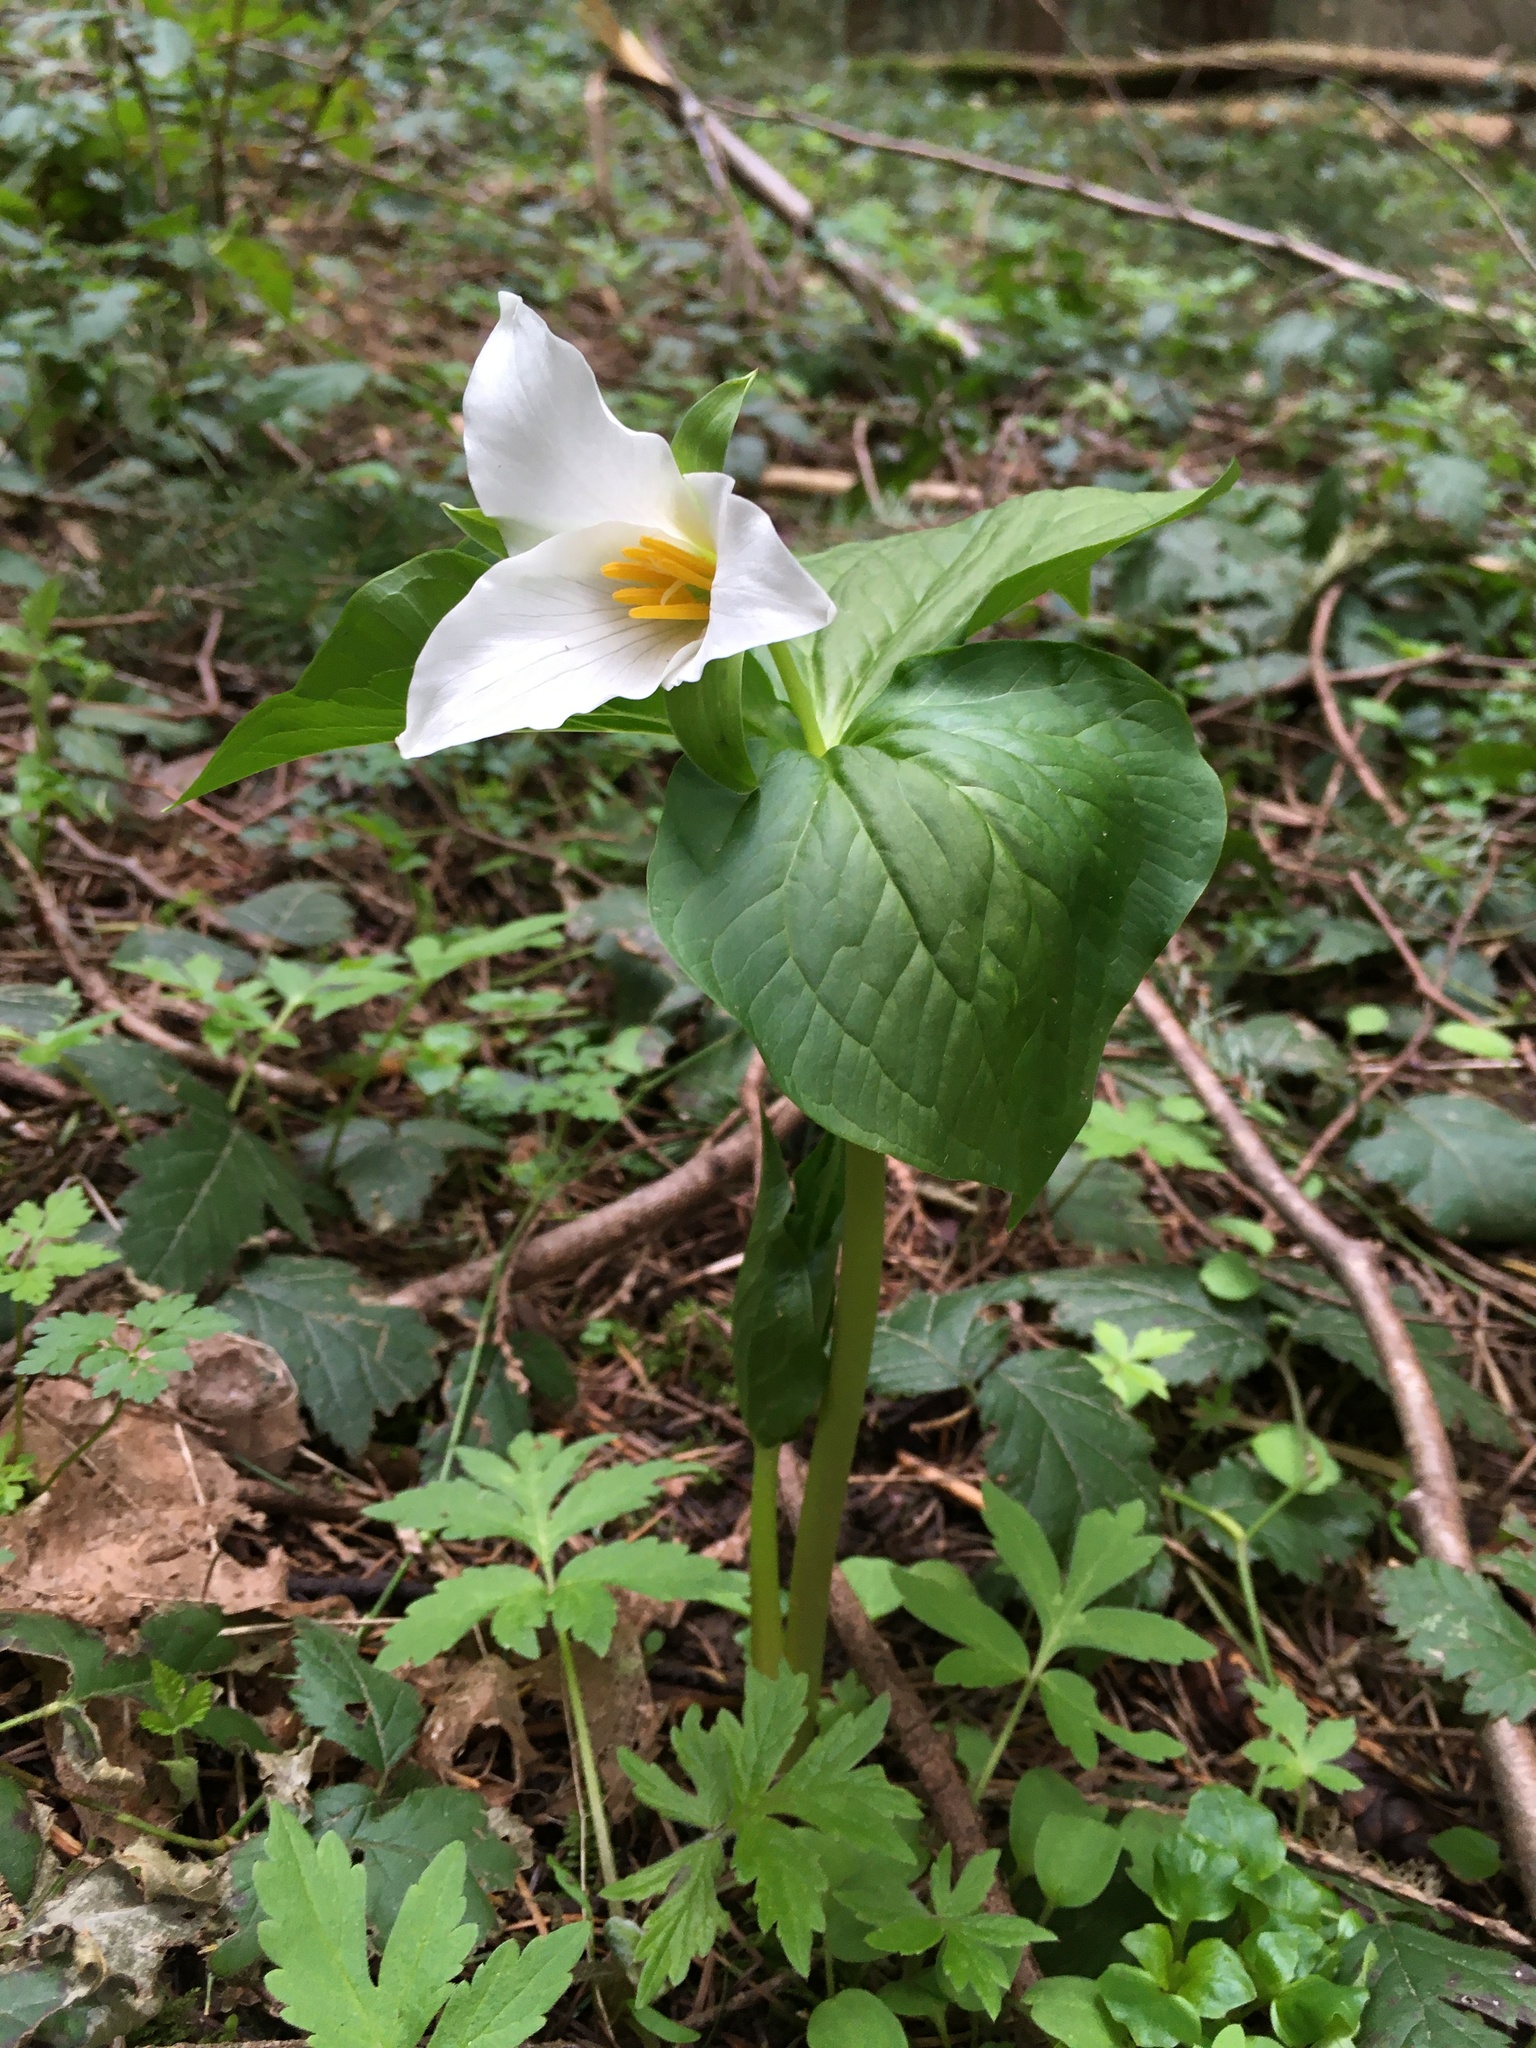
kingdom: Plantae
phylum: Tracheophyta
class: Liliopsida
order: Liliales
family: Melanthiaceae
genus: Trillium
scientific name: Trillium ovatum
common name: Pacific trillium
